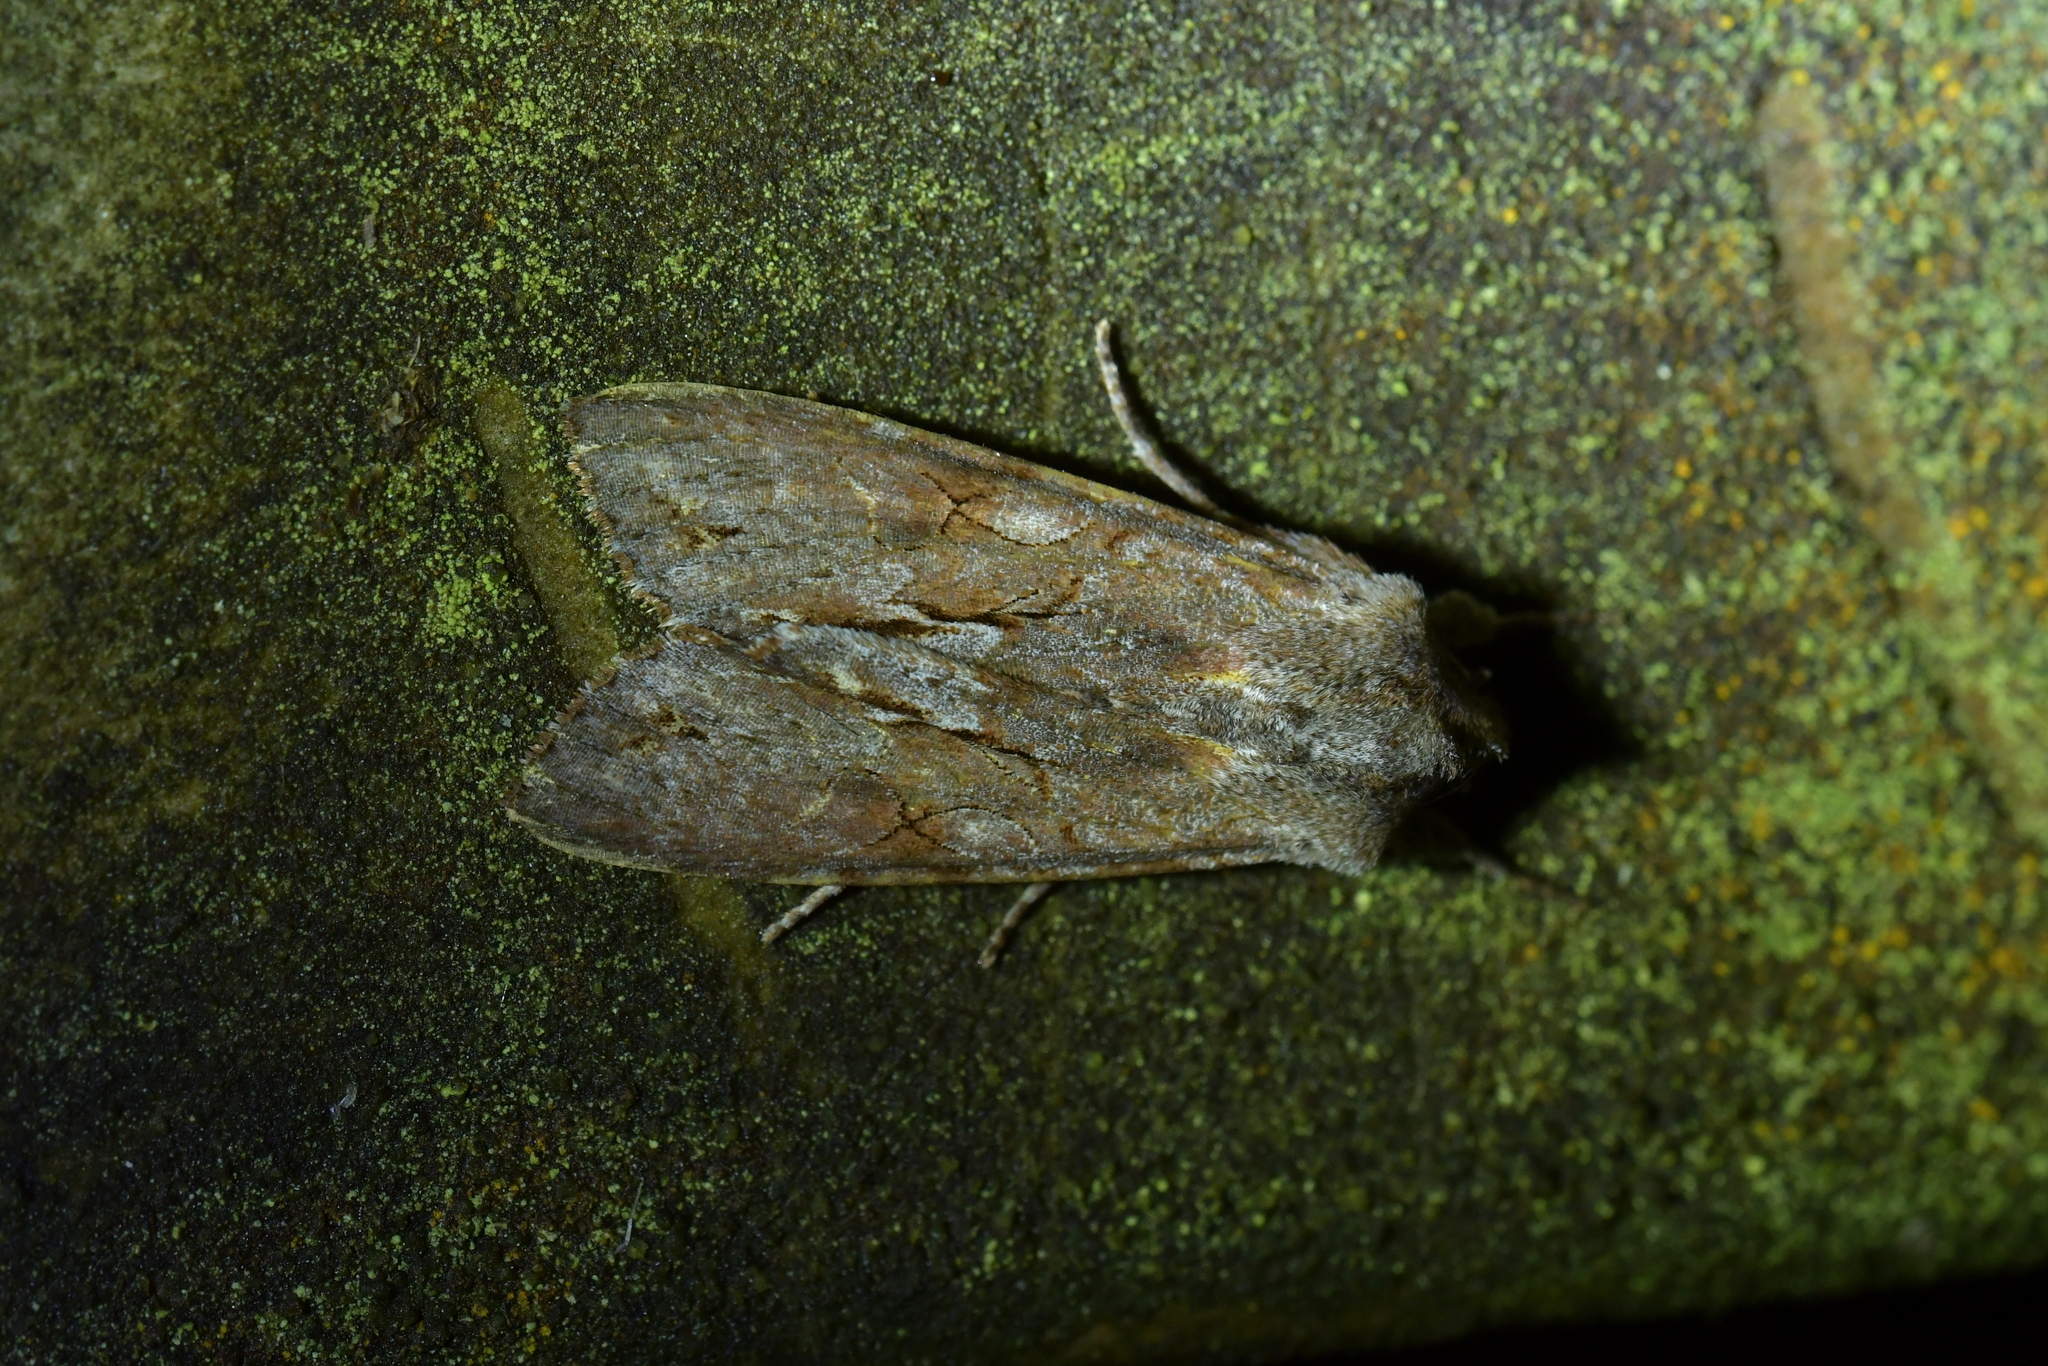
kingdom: Animalia
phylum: Arthropoda
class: Insecta
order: Lepidoptera
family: Noctuidae
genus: Ichneutica
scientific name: Ichneutica
